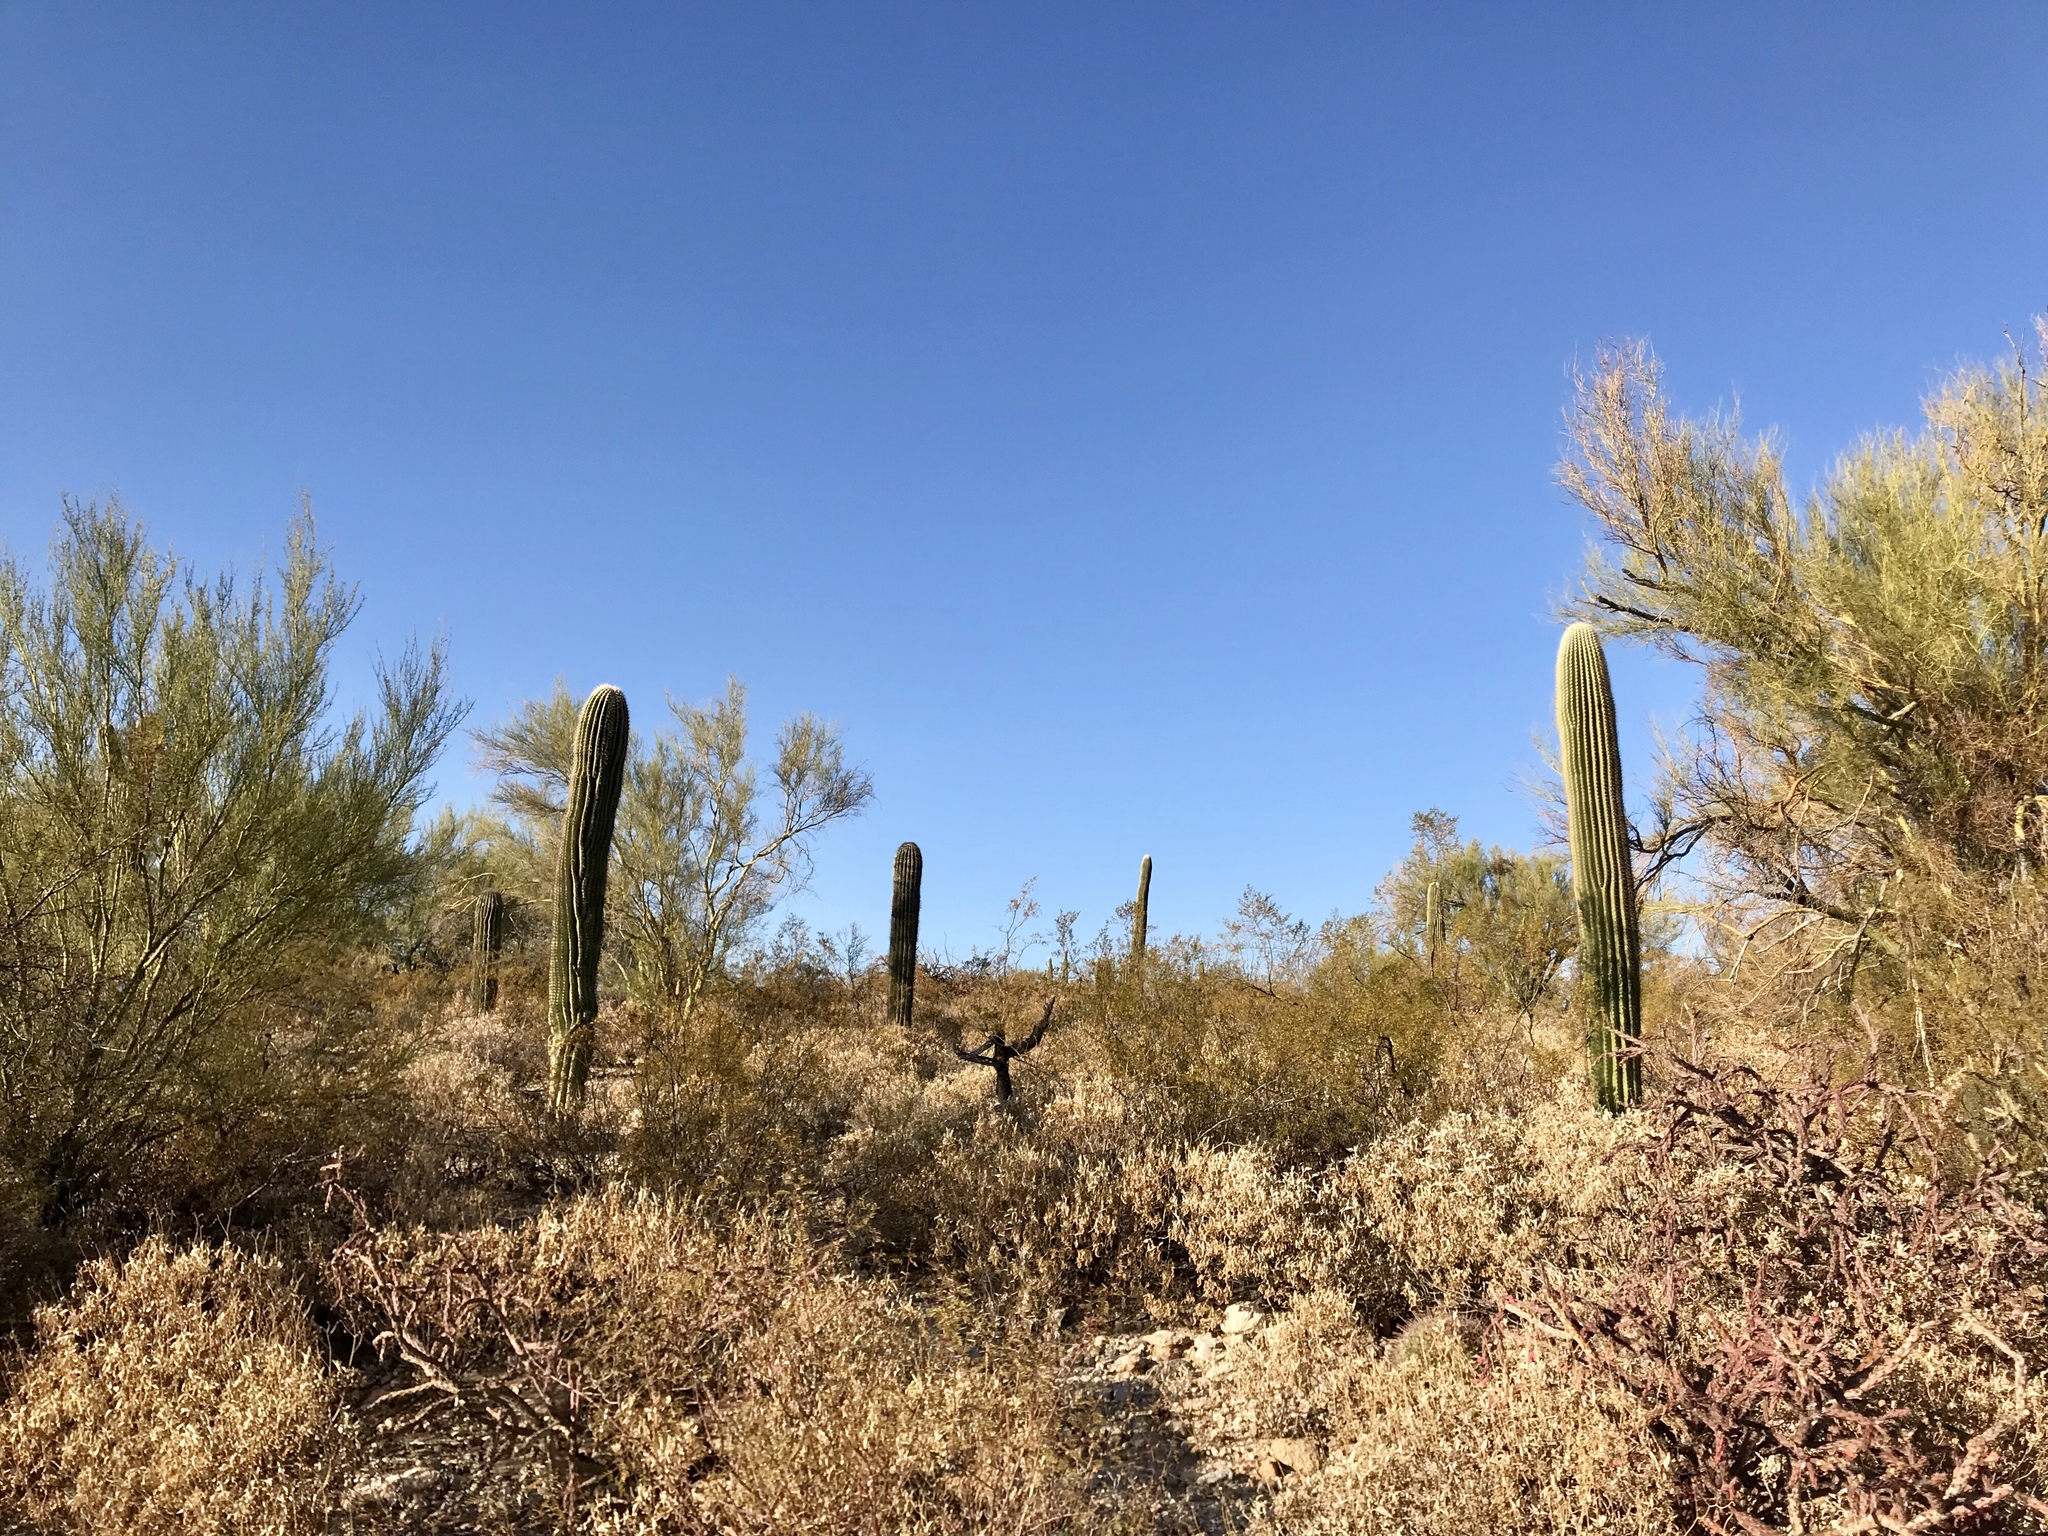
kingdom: Plantae
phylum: Tracheophyta
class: Magnoliopsida
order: Caryophyllales
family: Cactaceae
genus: Carnegiea
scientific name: Carnegiea gigantea
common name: Saguaro
